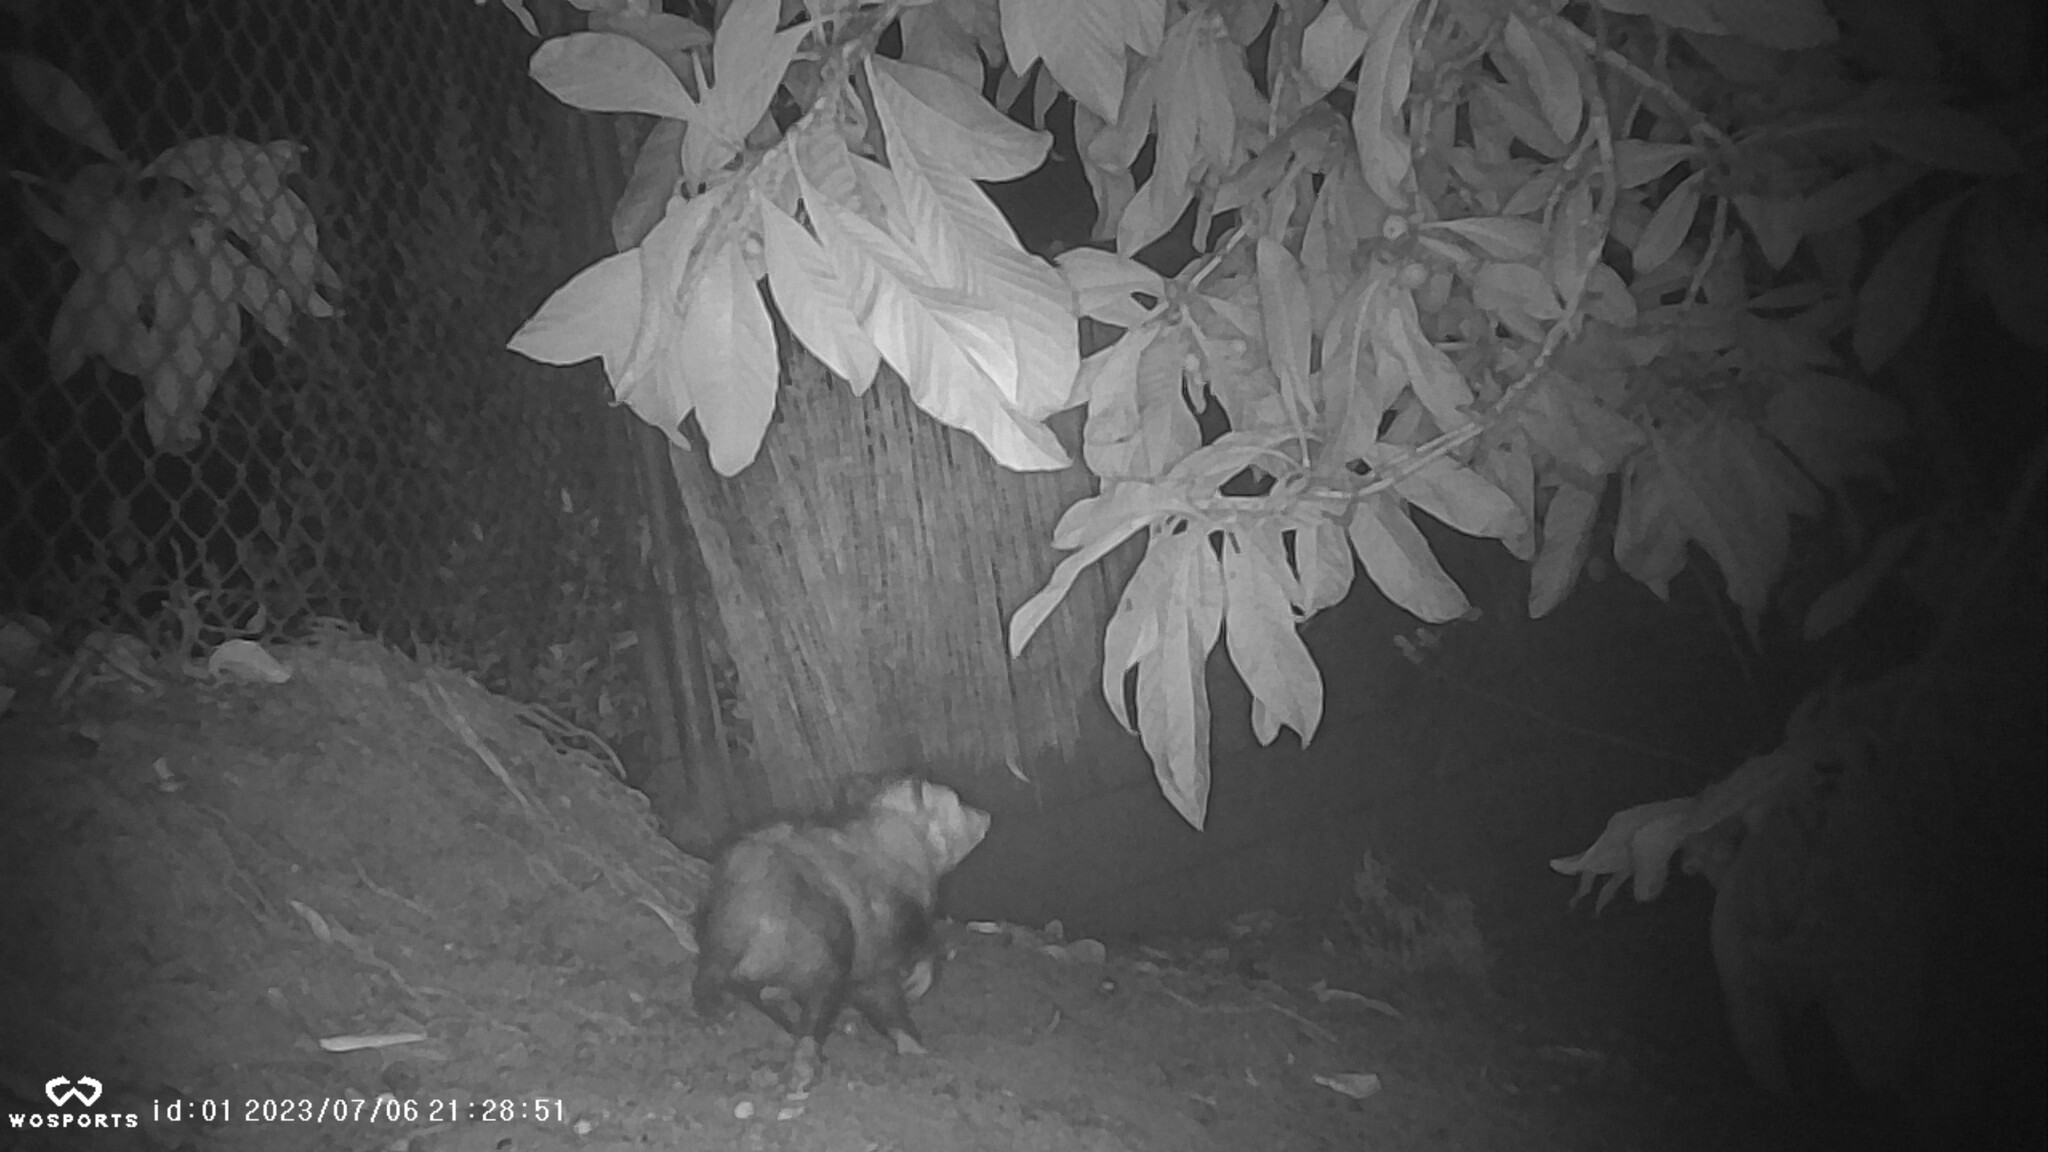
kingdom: Animalia
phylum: Chordata
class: Mammalia
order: Didelphimorphia
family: Didelphidae
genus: Didelphis
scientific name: Didelphis virginiana
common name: Virginia opossum
